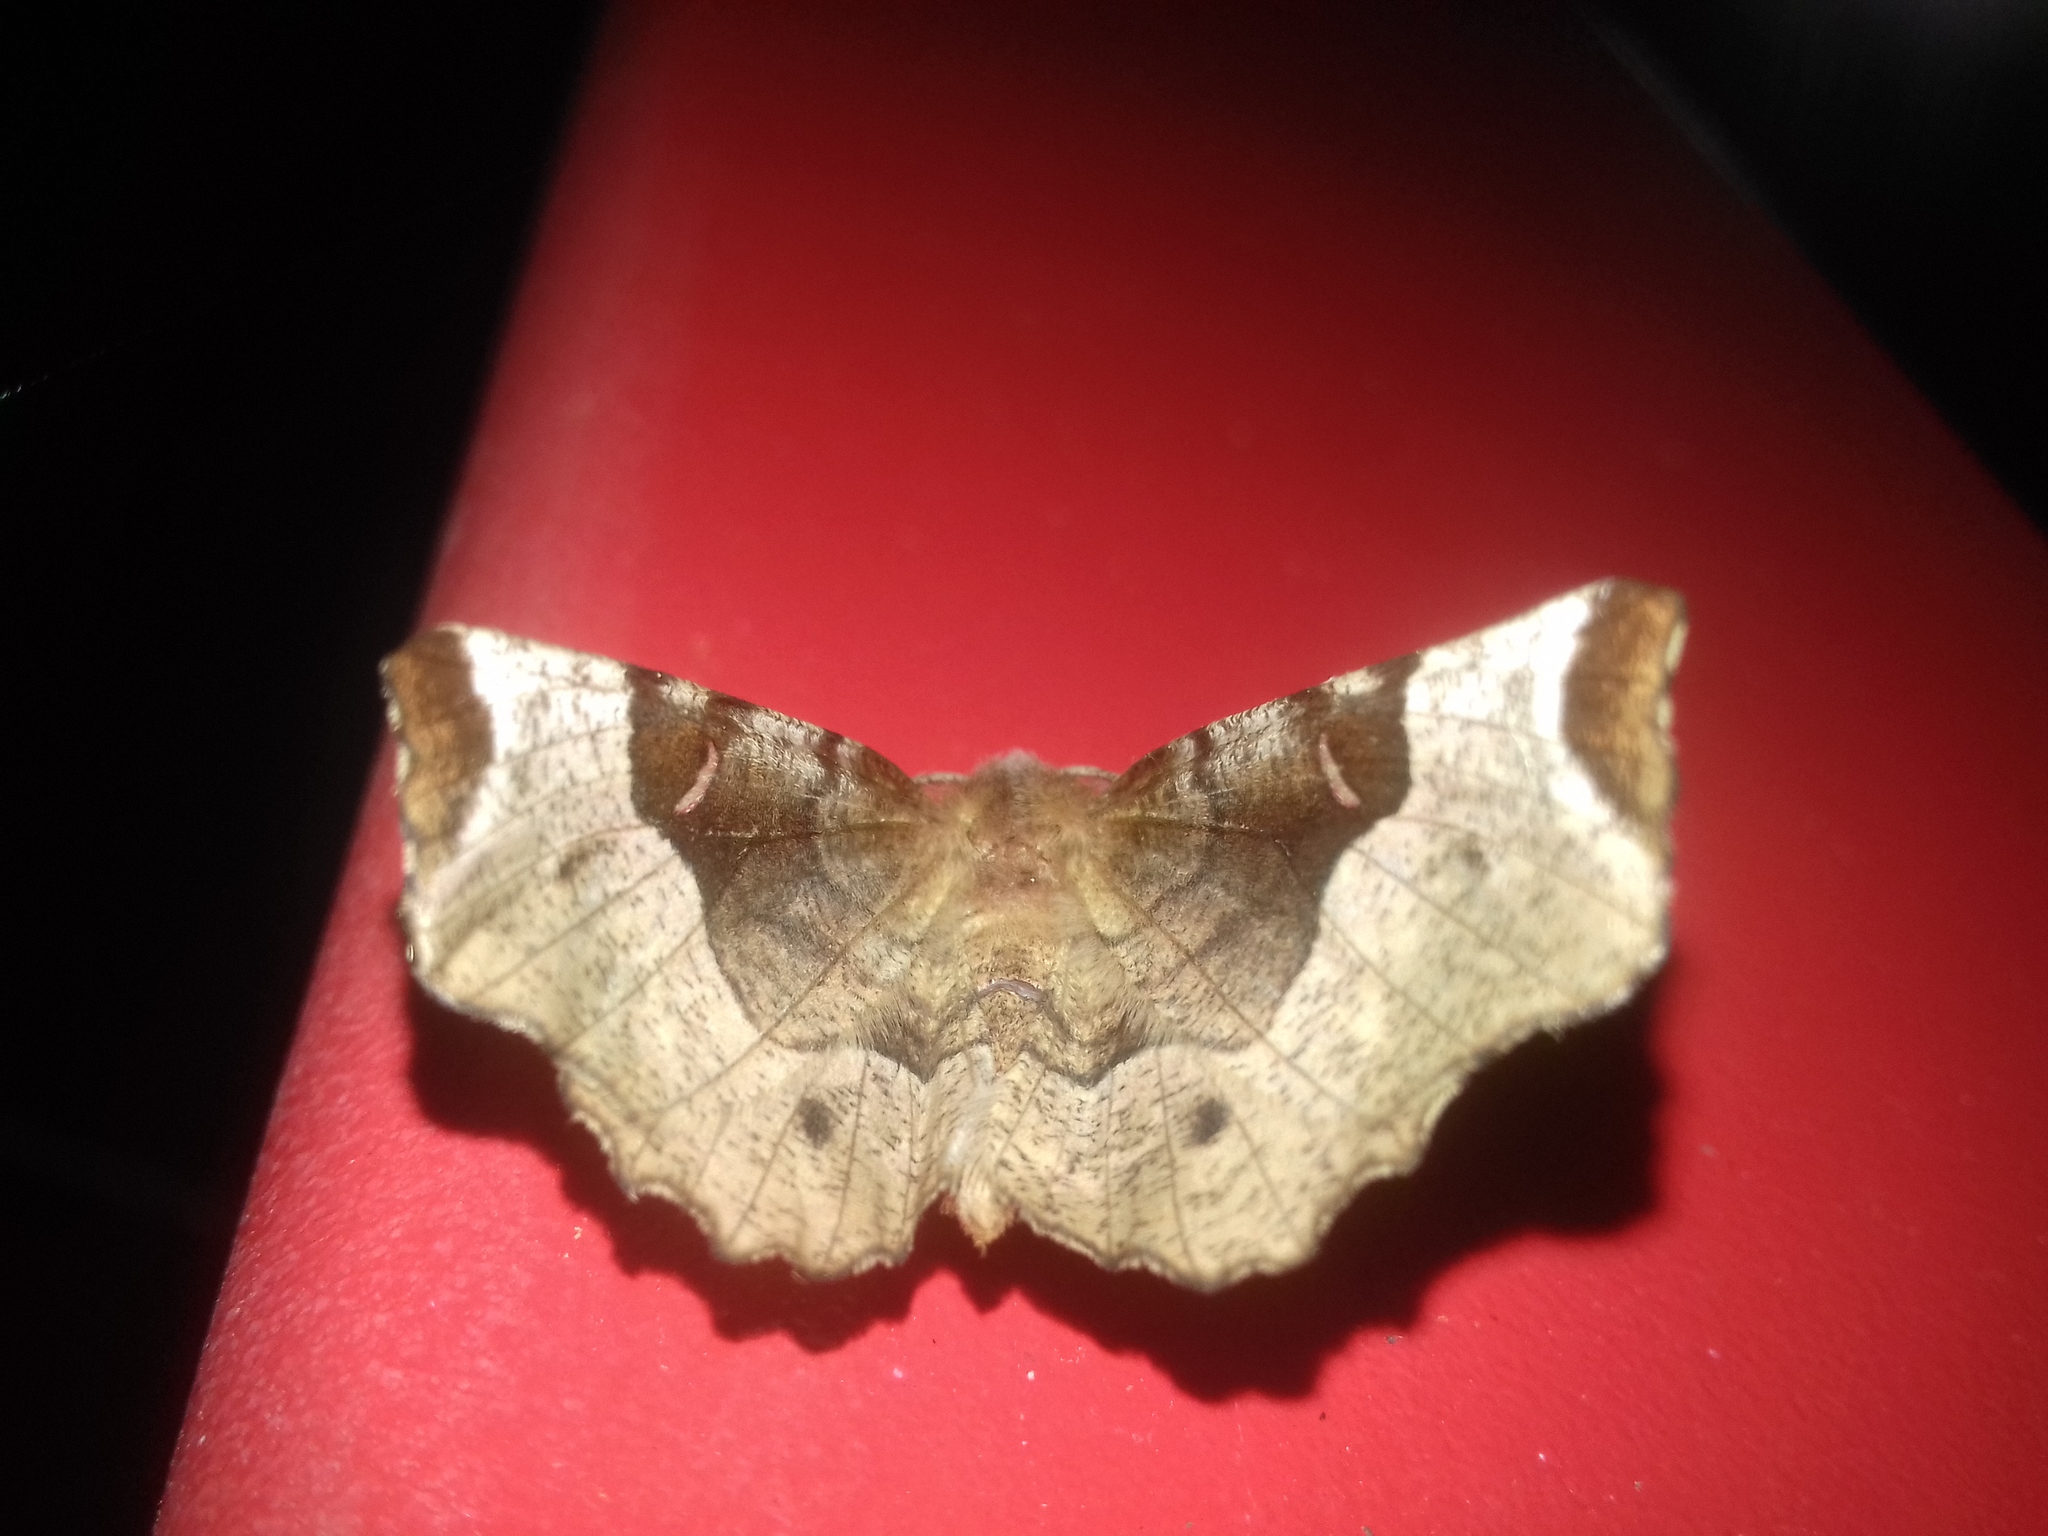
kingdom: Animalia
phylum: Arthropoda
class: Insecta
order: Lepidoptera
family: Geometridae
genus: Selenia
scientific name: Selenia tetralunaria
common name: Purple thorn
